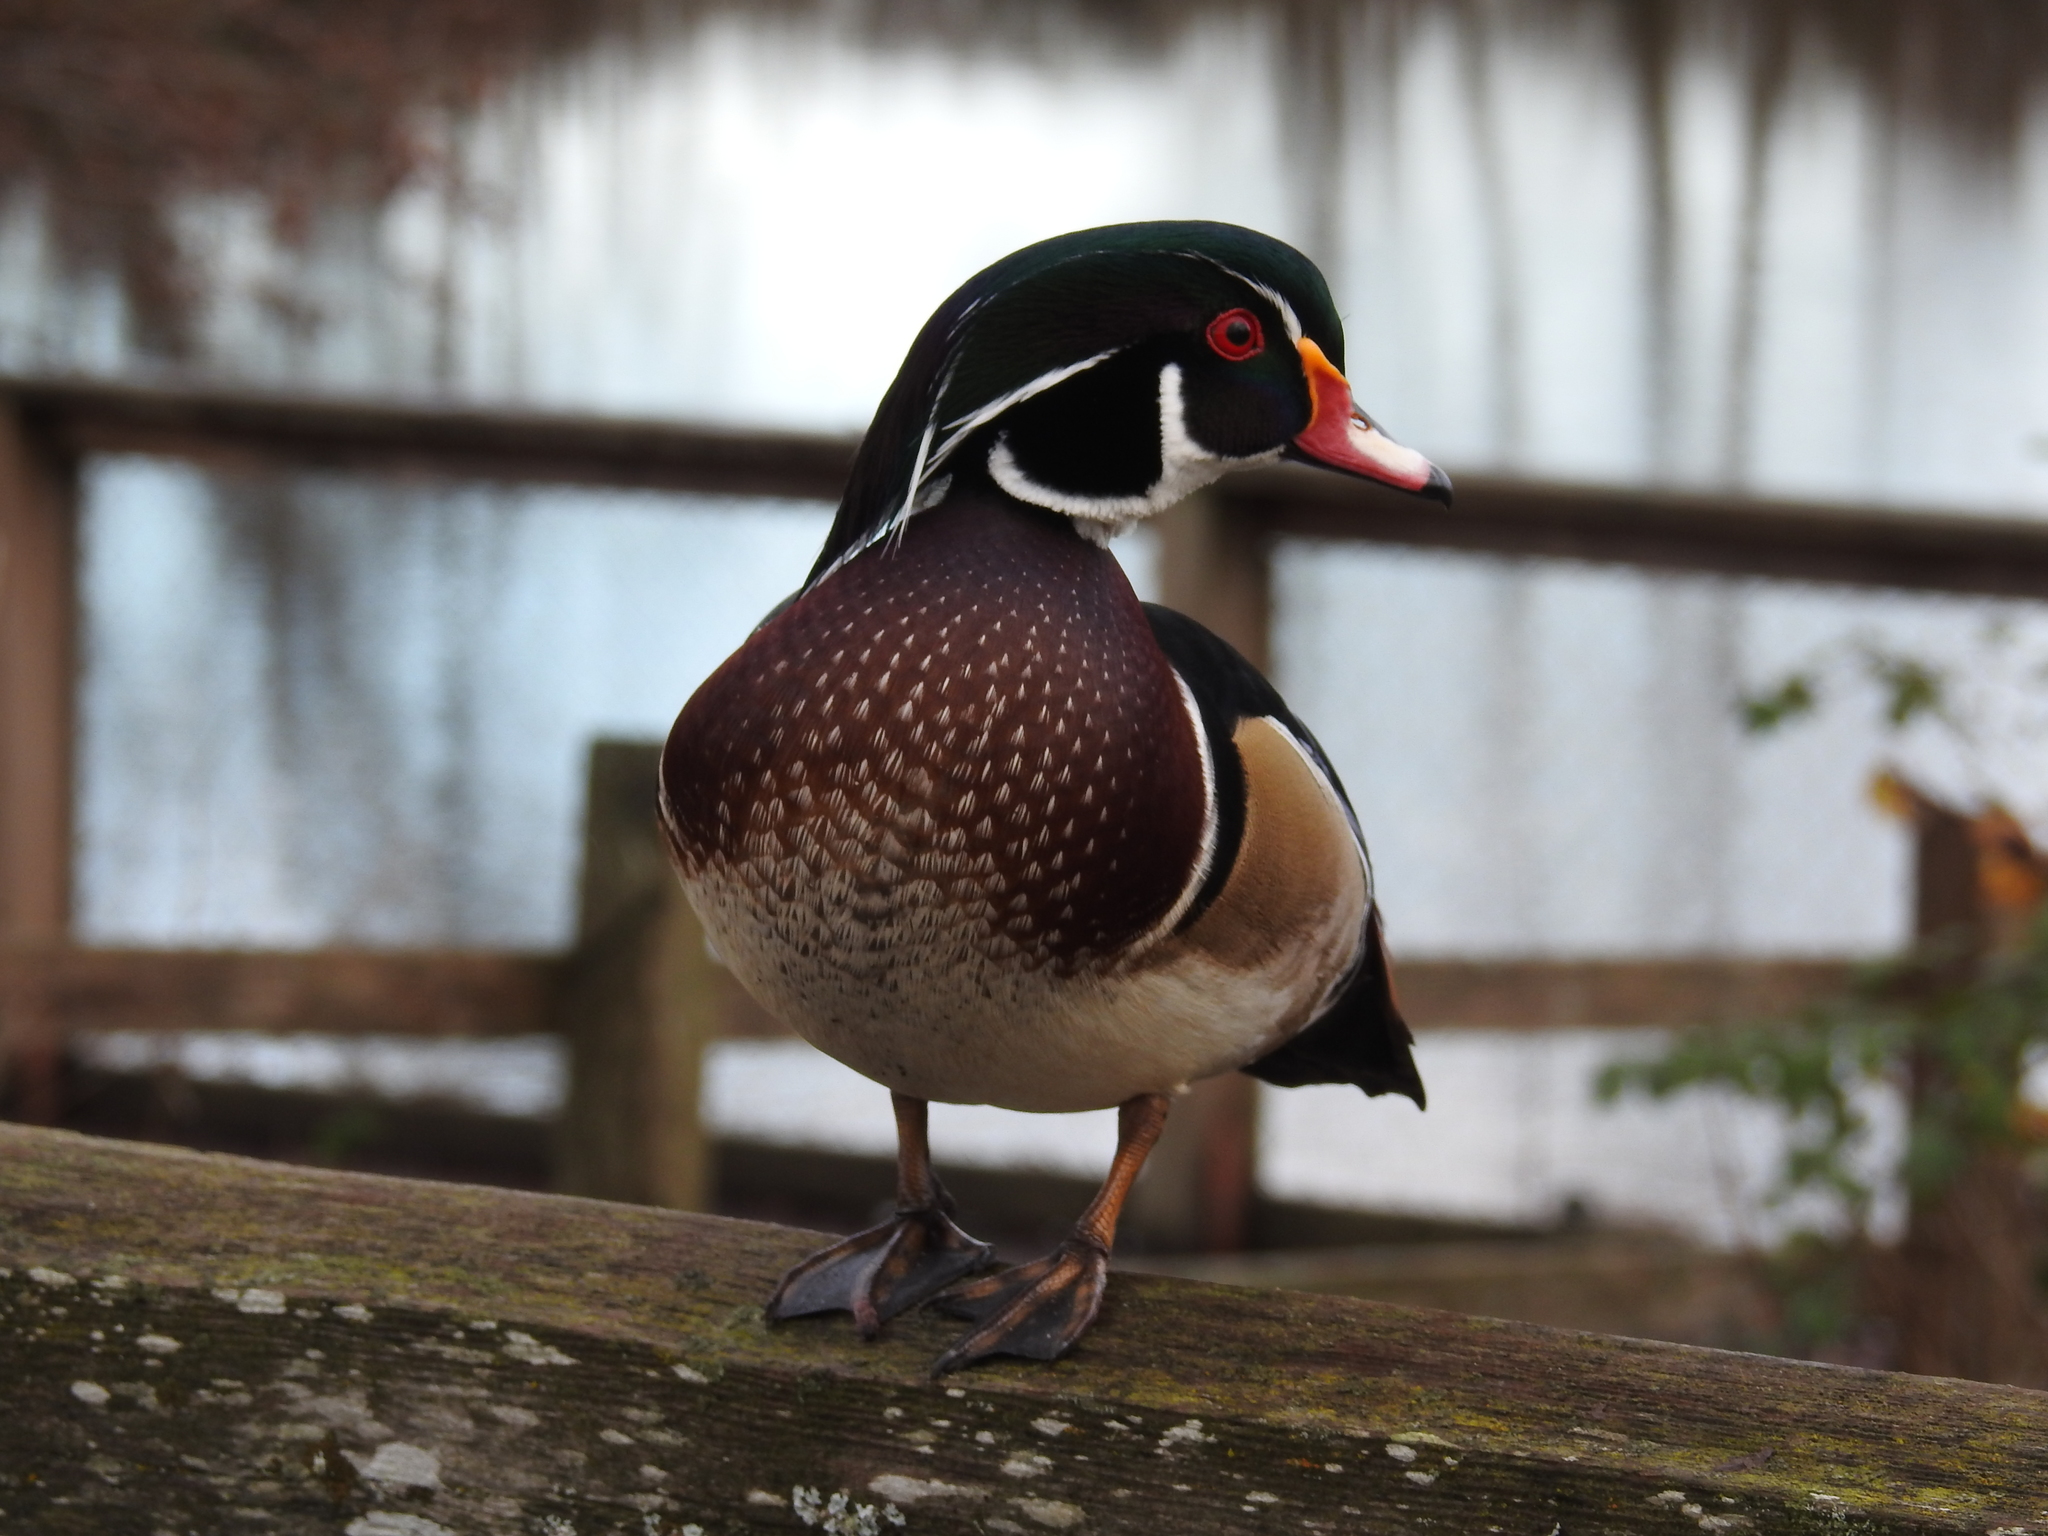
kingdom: Animalia
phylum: Chordata
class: Aves
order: Anseriformes
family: Anatidae
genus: Aix
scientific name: Aix sponsa
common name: Wood duck
